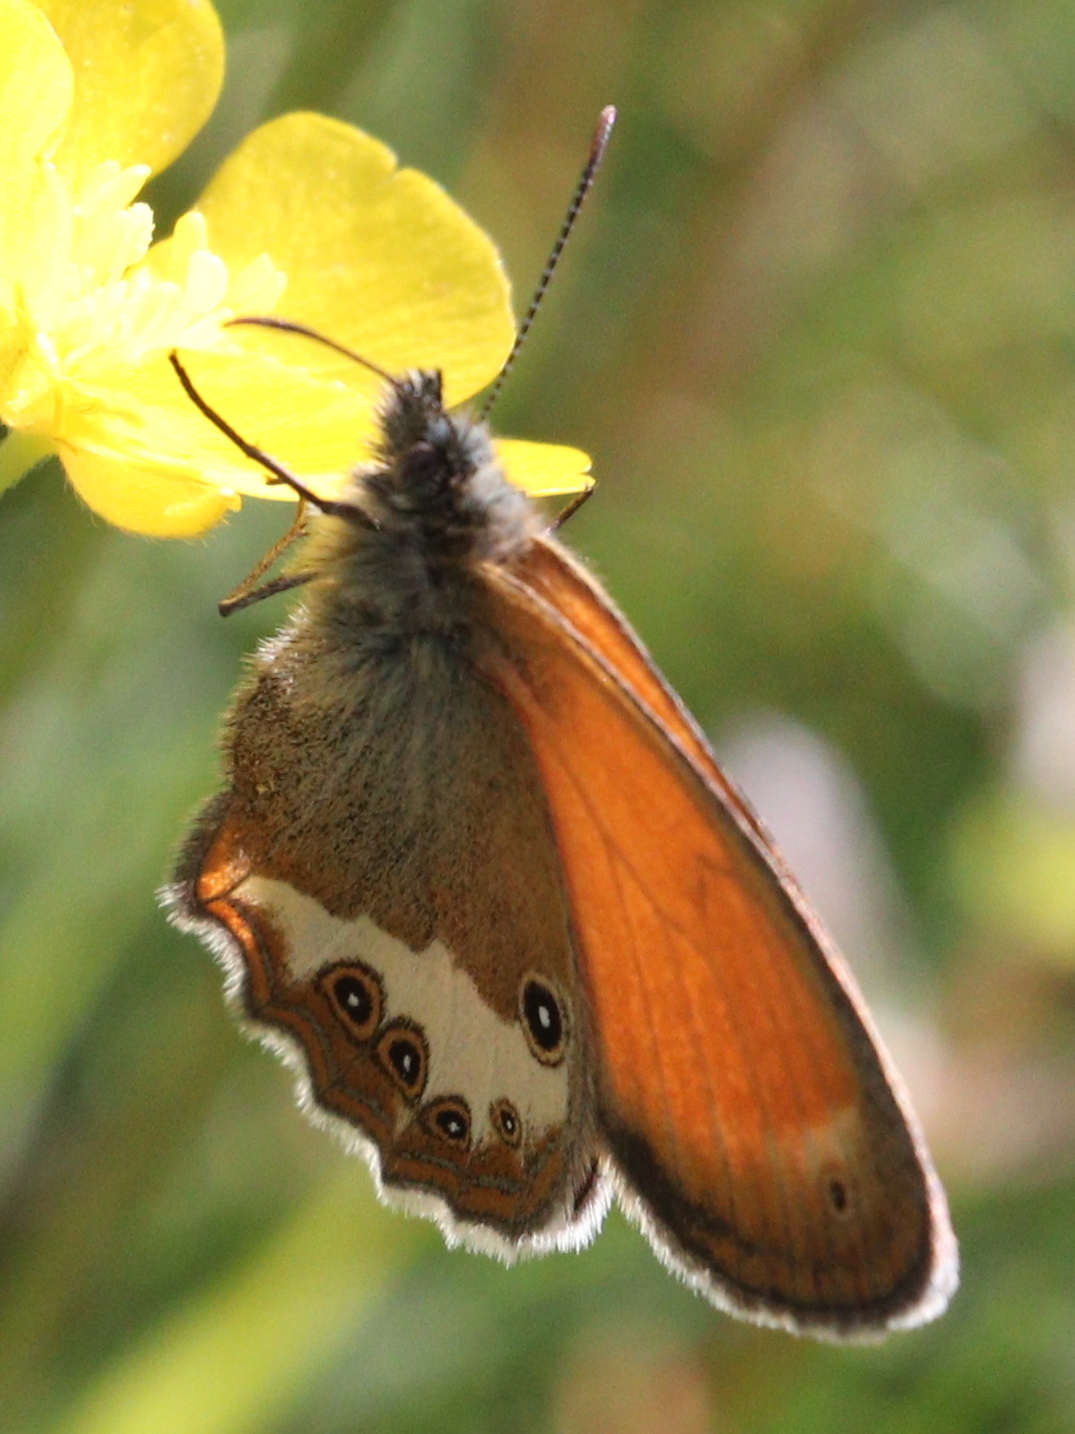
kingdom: Animalia
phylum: Arthropoda
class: Insecta
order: Lepidoptera
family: Nymphalidae
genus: Coenonympha
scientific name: Coenonympha arcania
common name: Pearly heath
